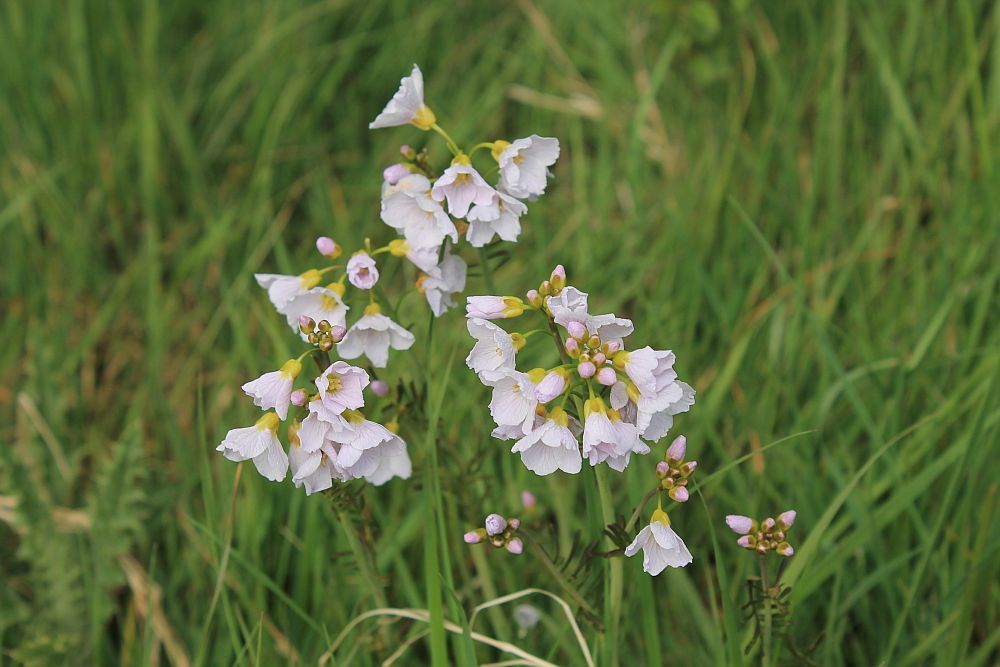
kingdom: Plantae
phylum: Tracheophyta
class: Magnoliopsida
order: Brassicales
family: Brassicaceae
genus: Cardamine
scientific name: Cardamine pratensis
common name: Cuckoo flower
